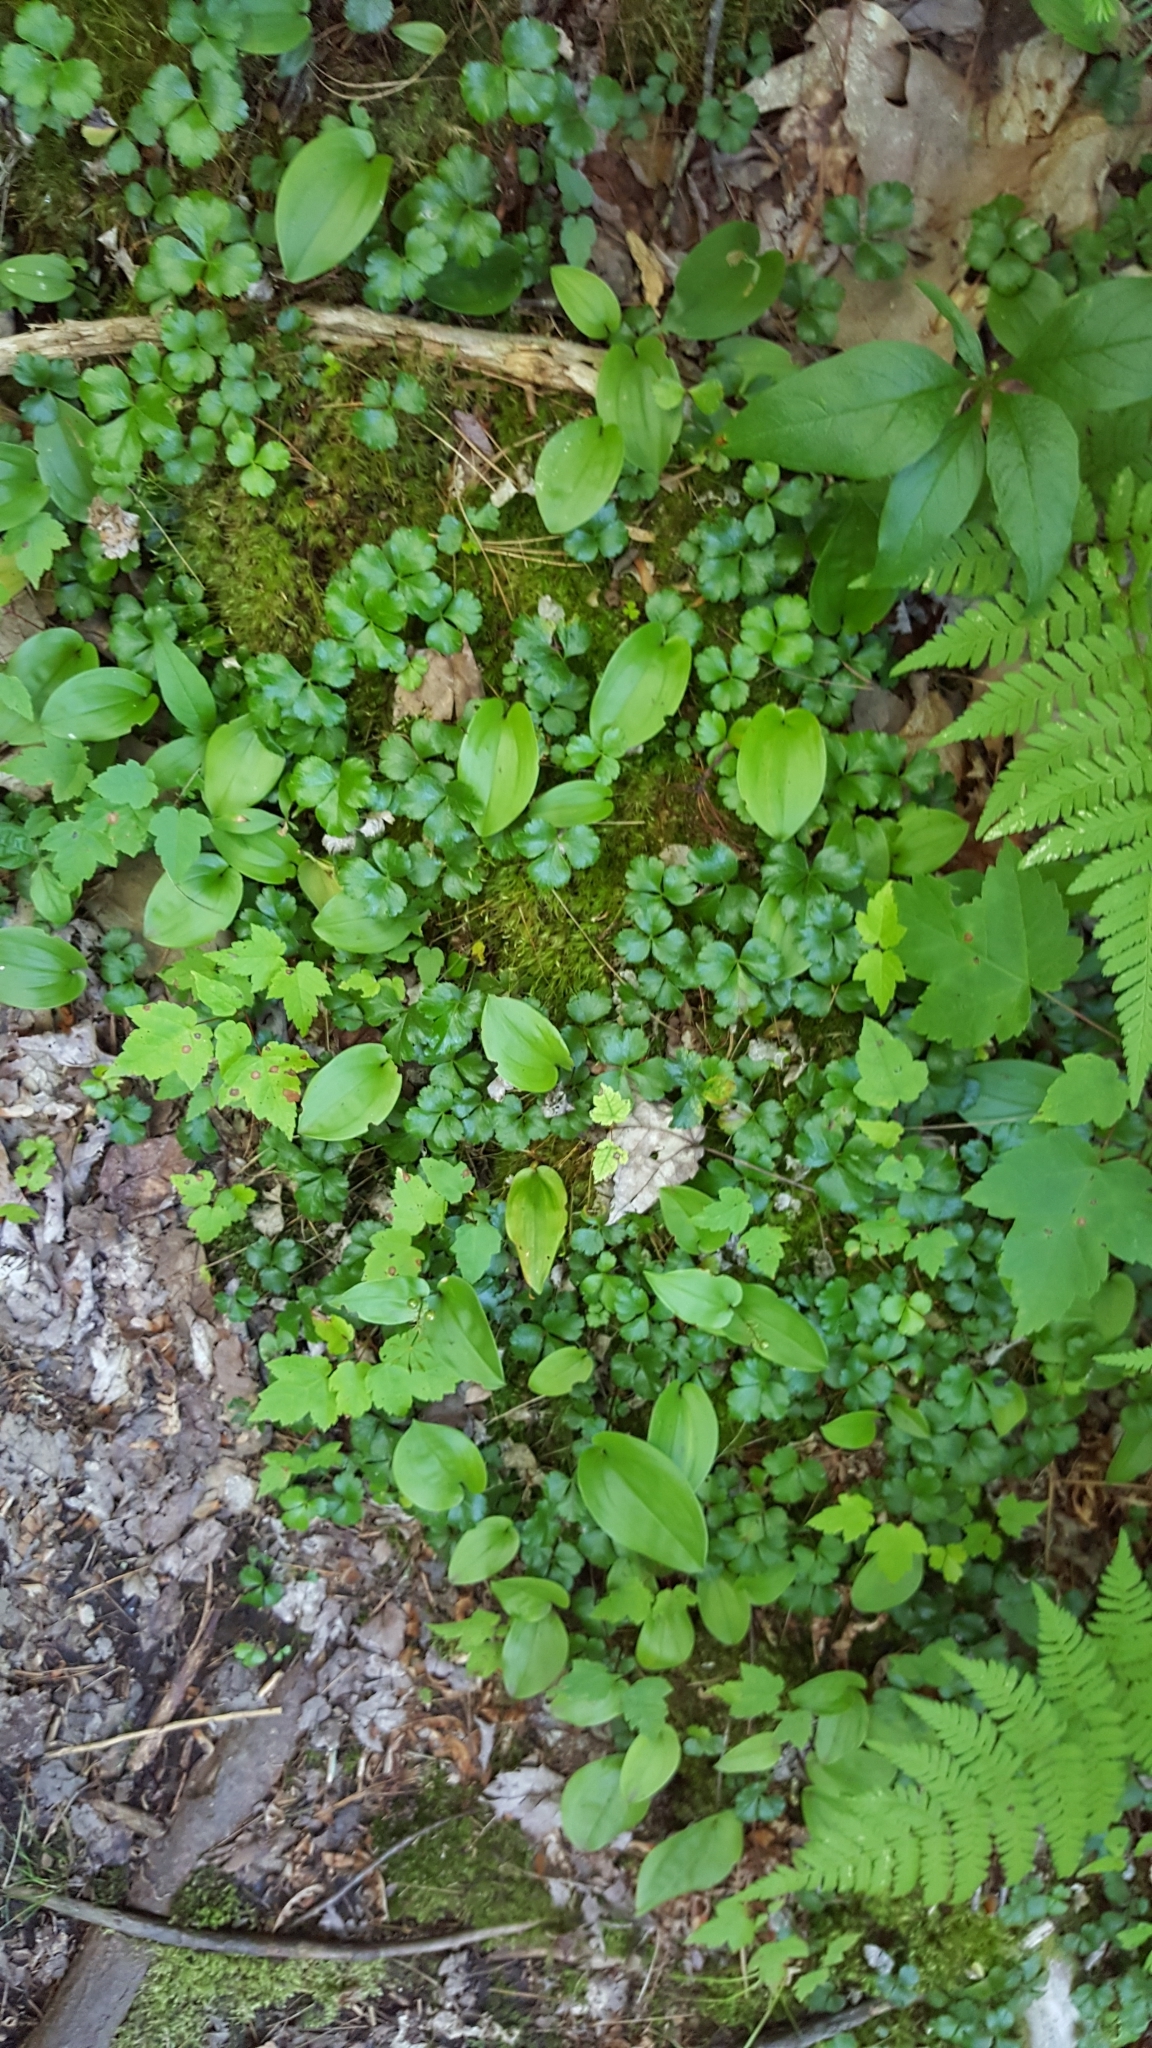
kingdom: Plantae
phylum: Tracheophyta
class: Magnoliopsida
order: Ranunculales
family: Ranunculaceae
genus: Coptis
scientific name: Coptis trifolia
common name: Canker-root
